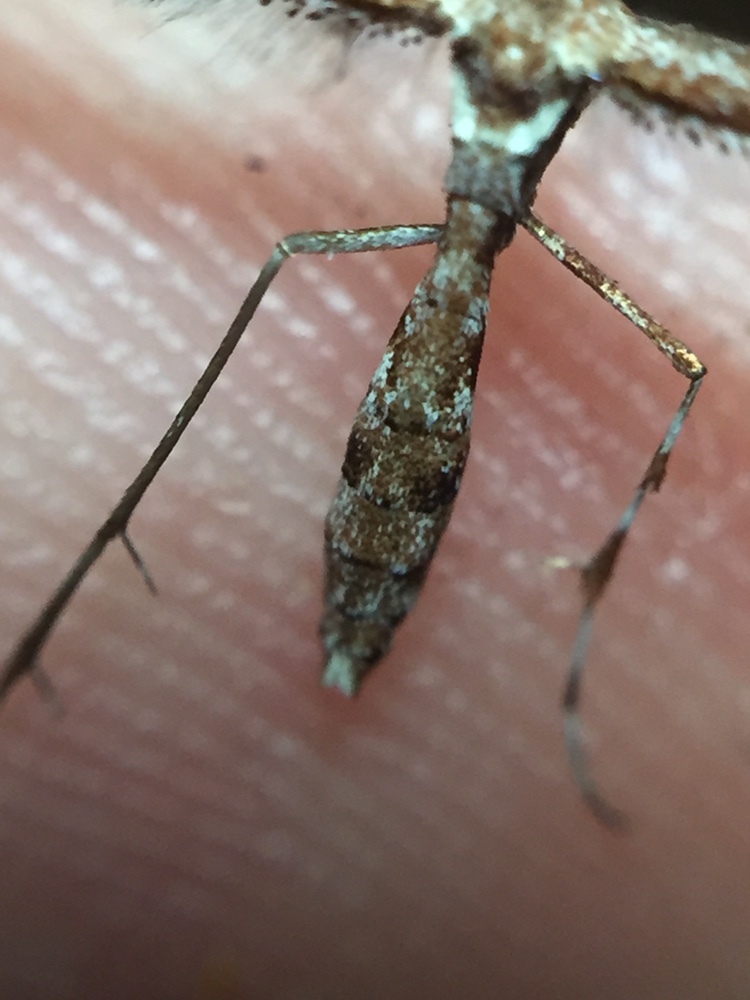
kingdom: Animalia
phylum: Arthropoda
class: Insecta
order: Lepidoptera
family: Pterophoridae
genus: Amblyptilia
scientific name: Amblyptilia falcatalis
